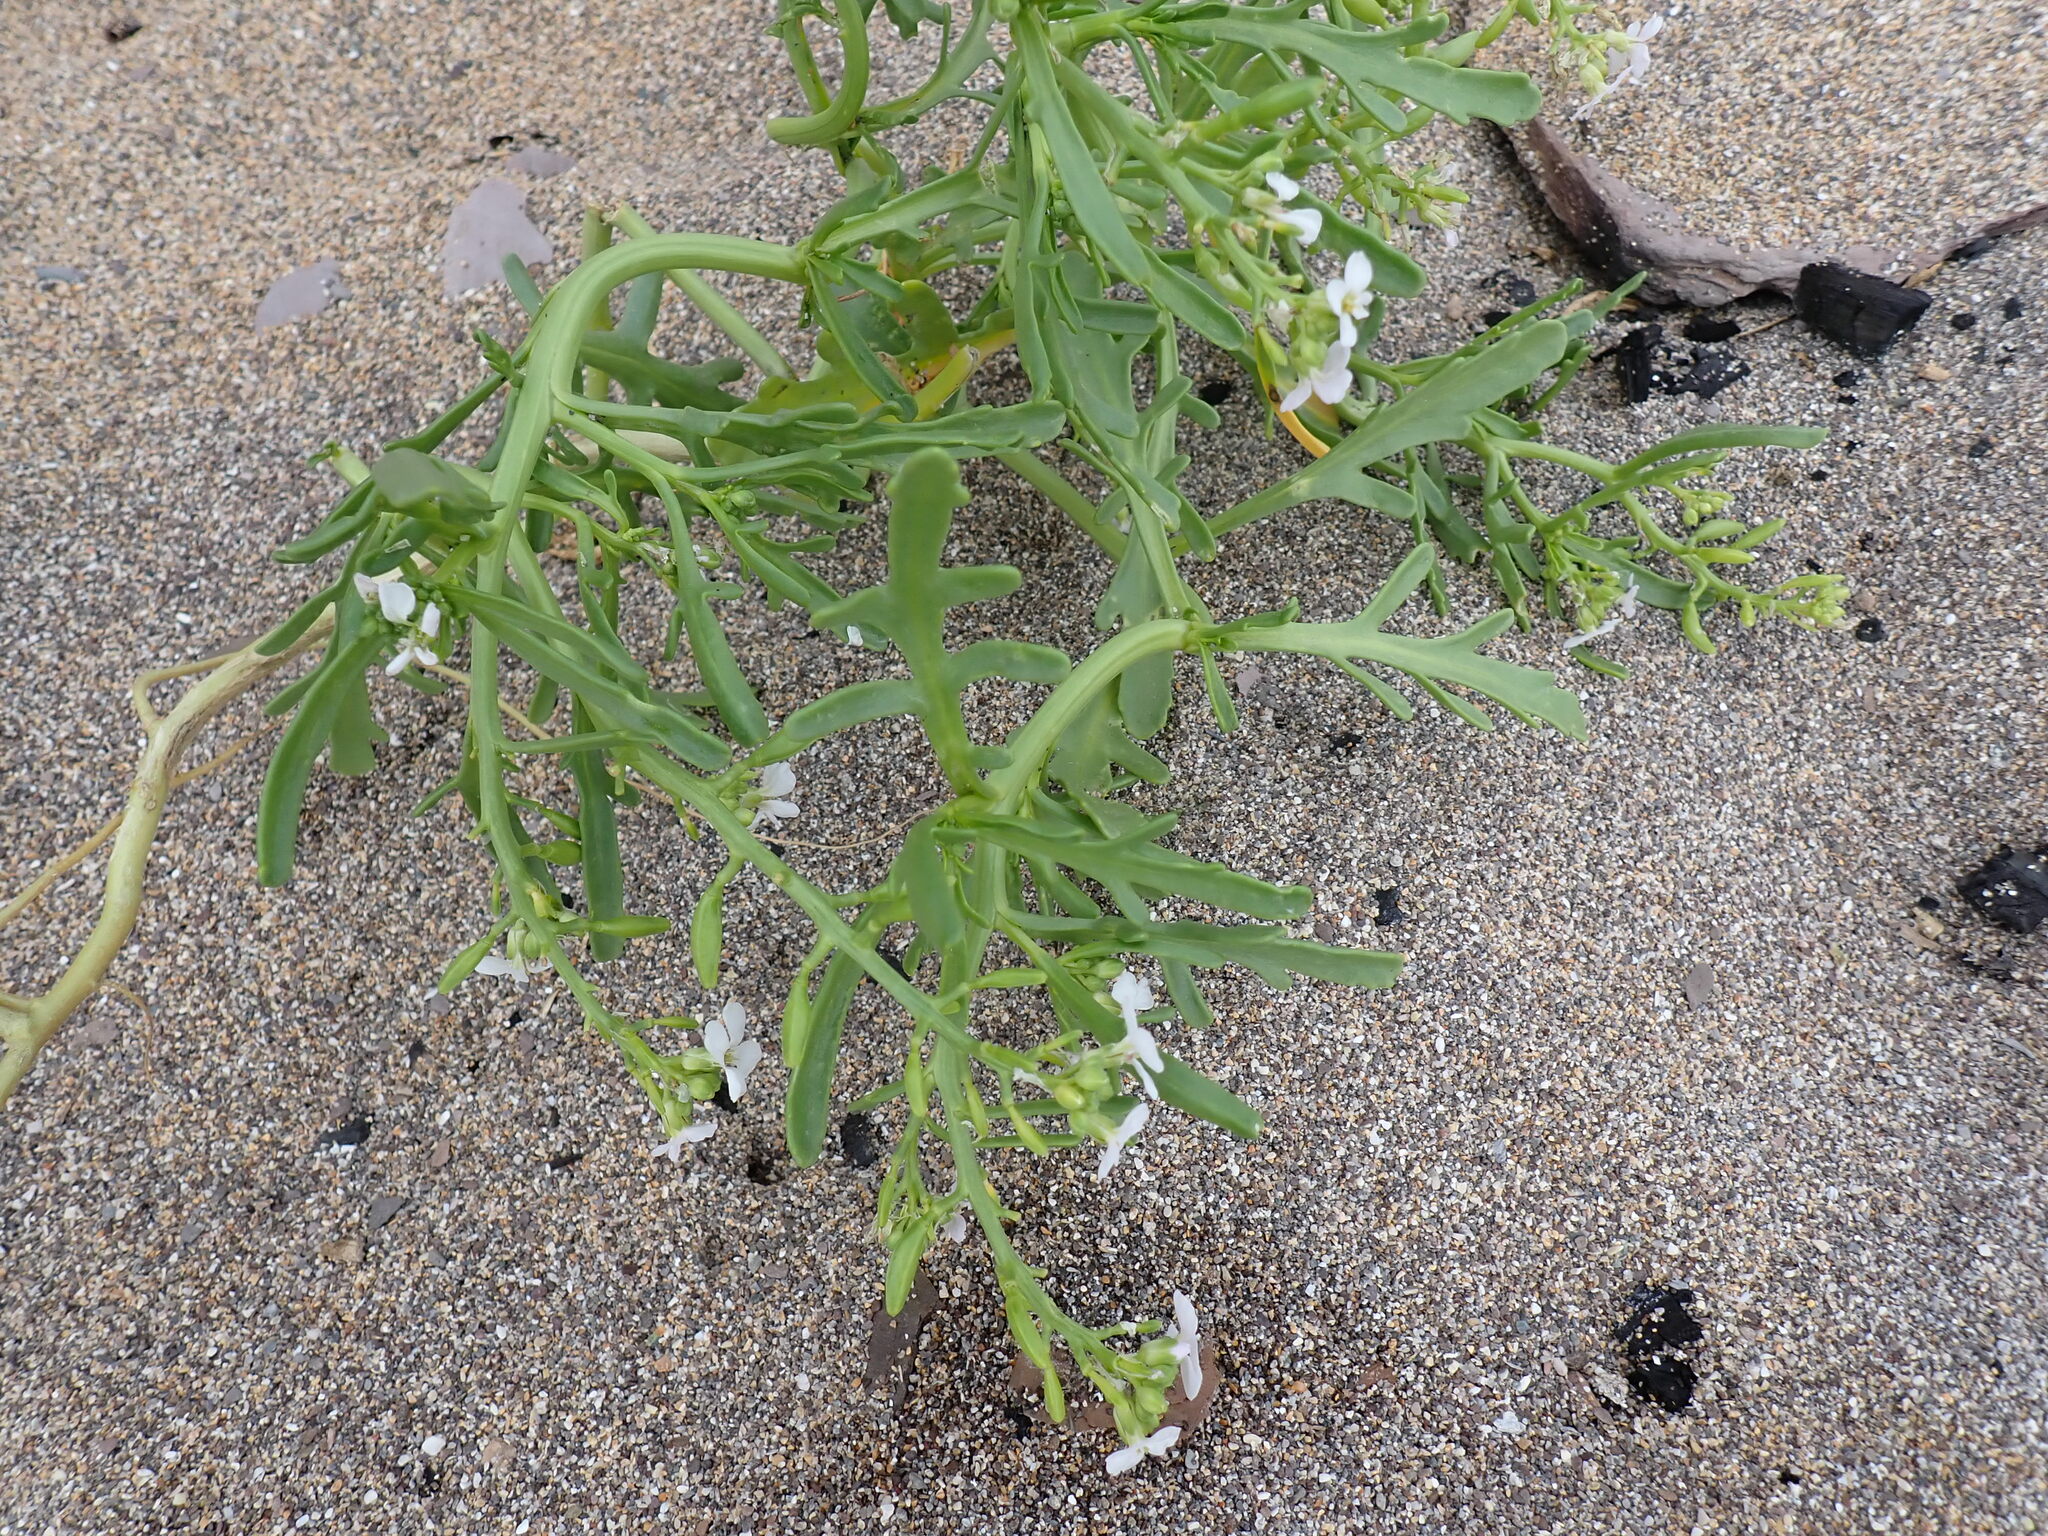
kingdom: Plantae
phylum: Tracheophyta
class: Magnoliopsida
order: Brassicales
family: Brassicaceae
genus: Cakile
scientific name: Cakile maritima
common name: Sea rocket
